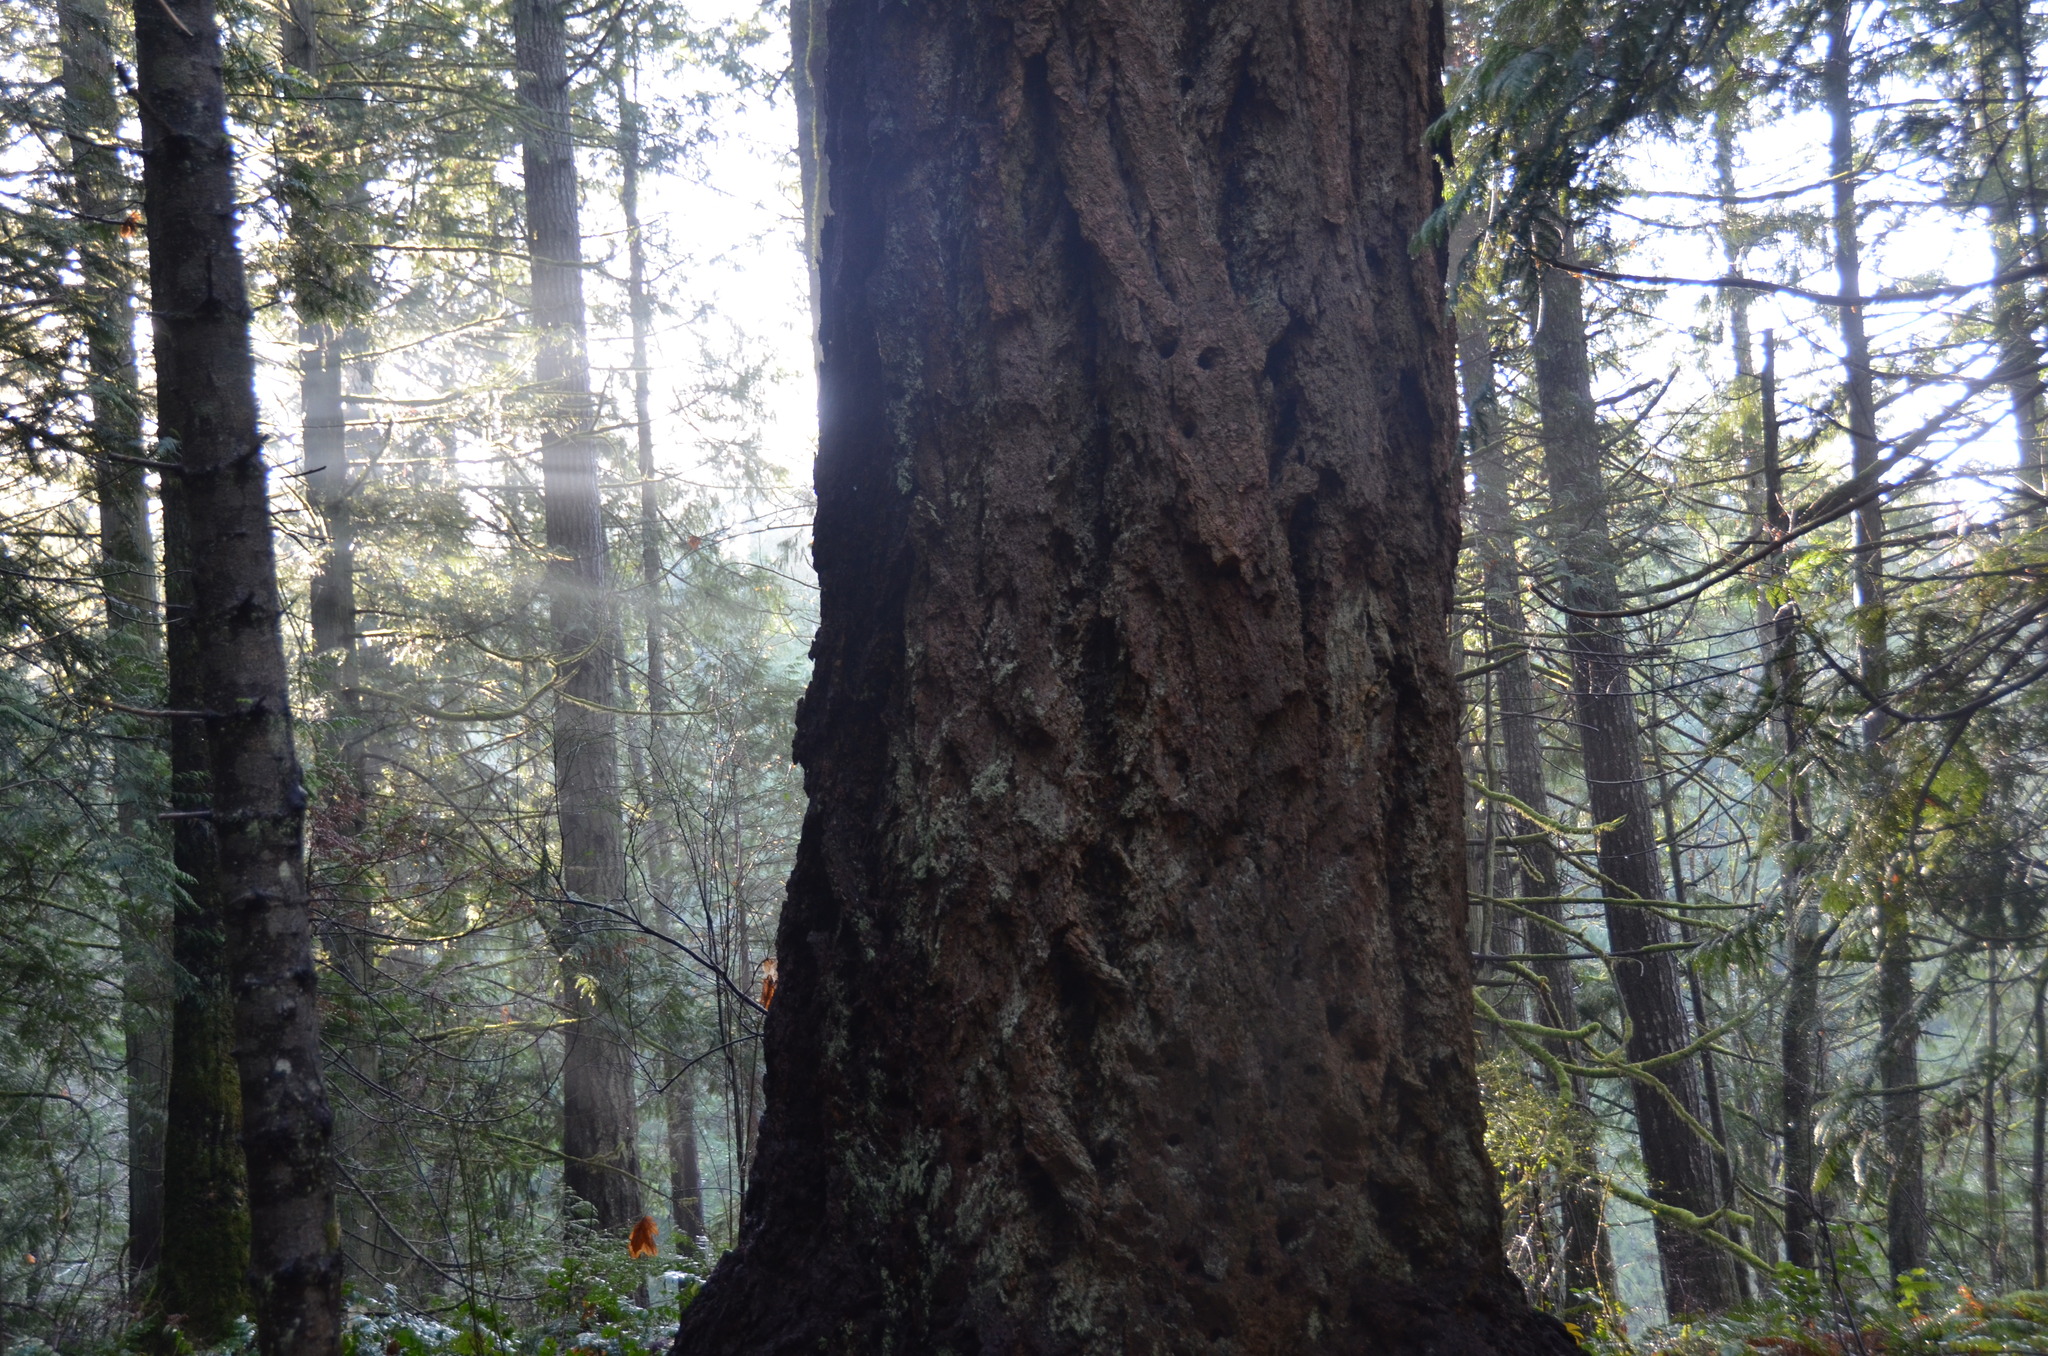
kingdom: Plantae
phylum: Tracheophyta
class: Pinopsida
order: Pinales
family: Pinaceae
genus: Pseudotsuga
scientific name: Pseudotsuga menziesii
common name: Douglas fir
